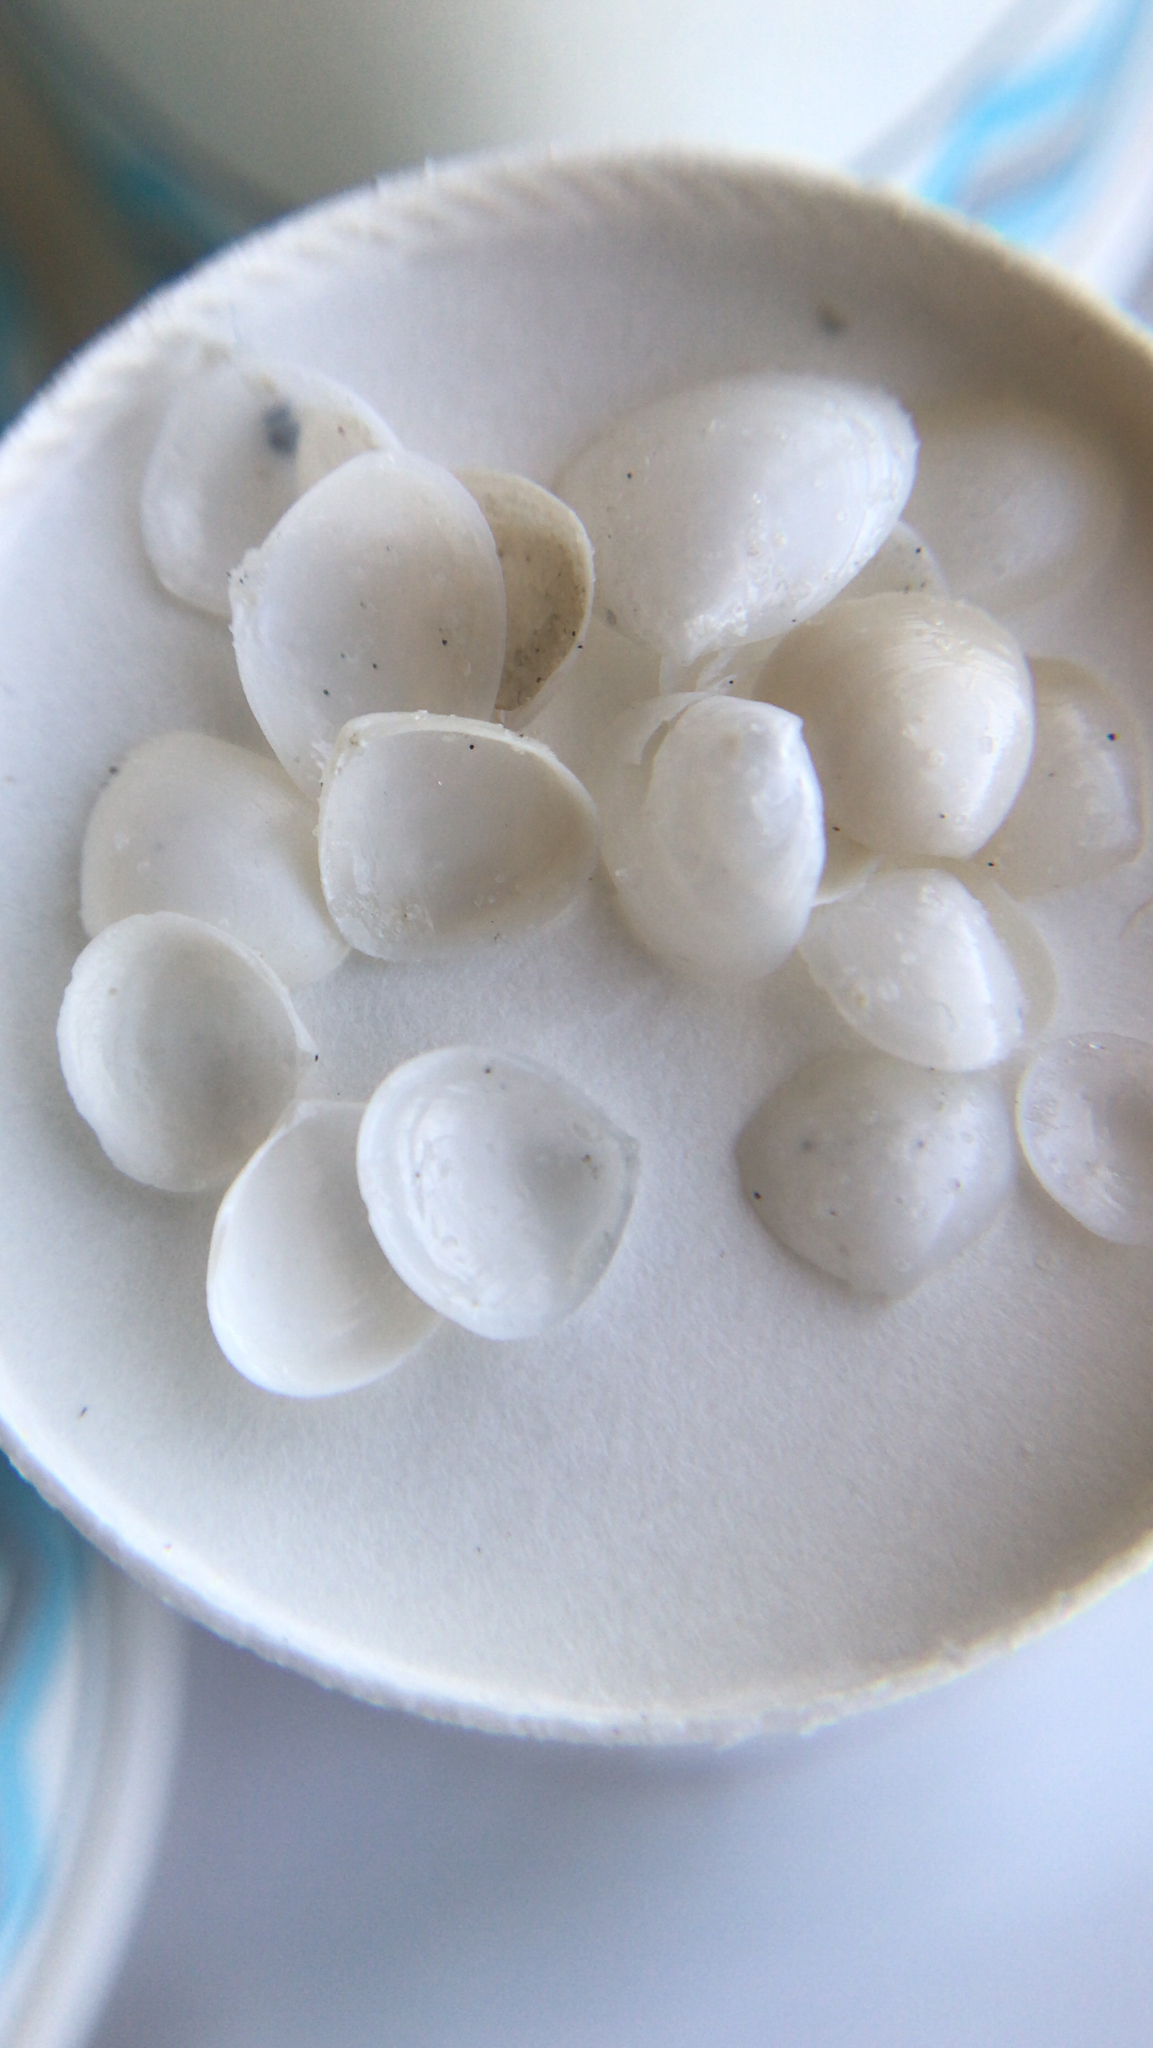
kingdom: Animalia
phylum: Mollusca
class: Bivalvia
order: Cardiida
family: Semelidae
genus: Abra
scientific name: Abra aequalis
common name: Common atlantic abra
